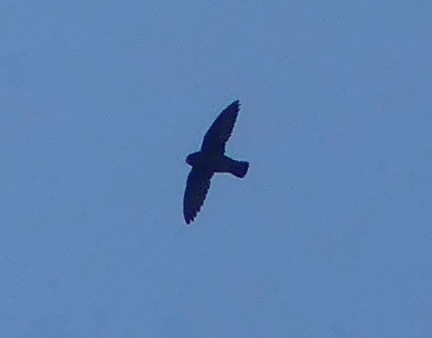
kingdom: Animalia
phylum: Chordata
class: Aves
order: Apodiformes
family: Apodidae
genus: Cypseloides
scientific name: Cypseloides cryptus
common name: White-chinned swift
